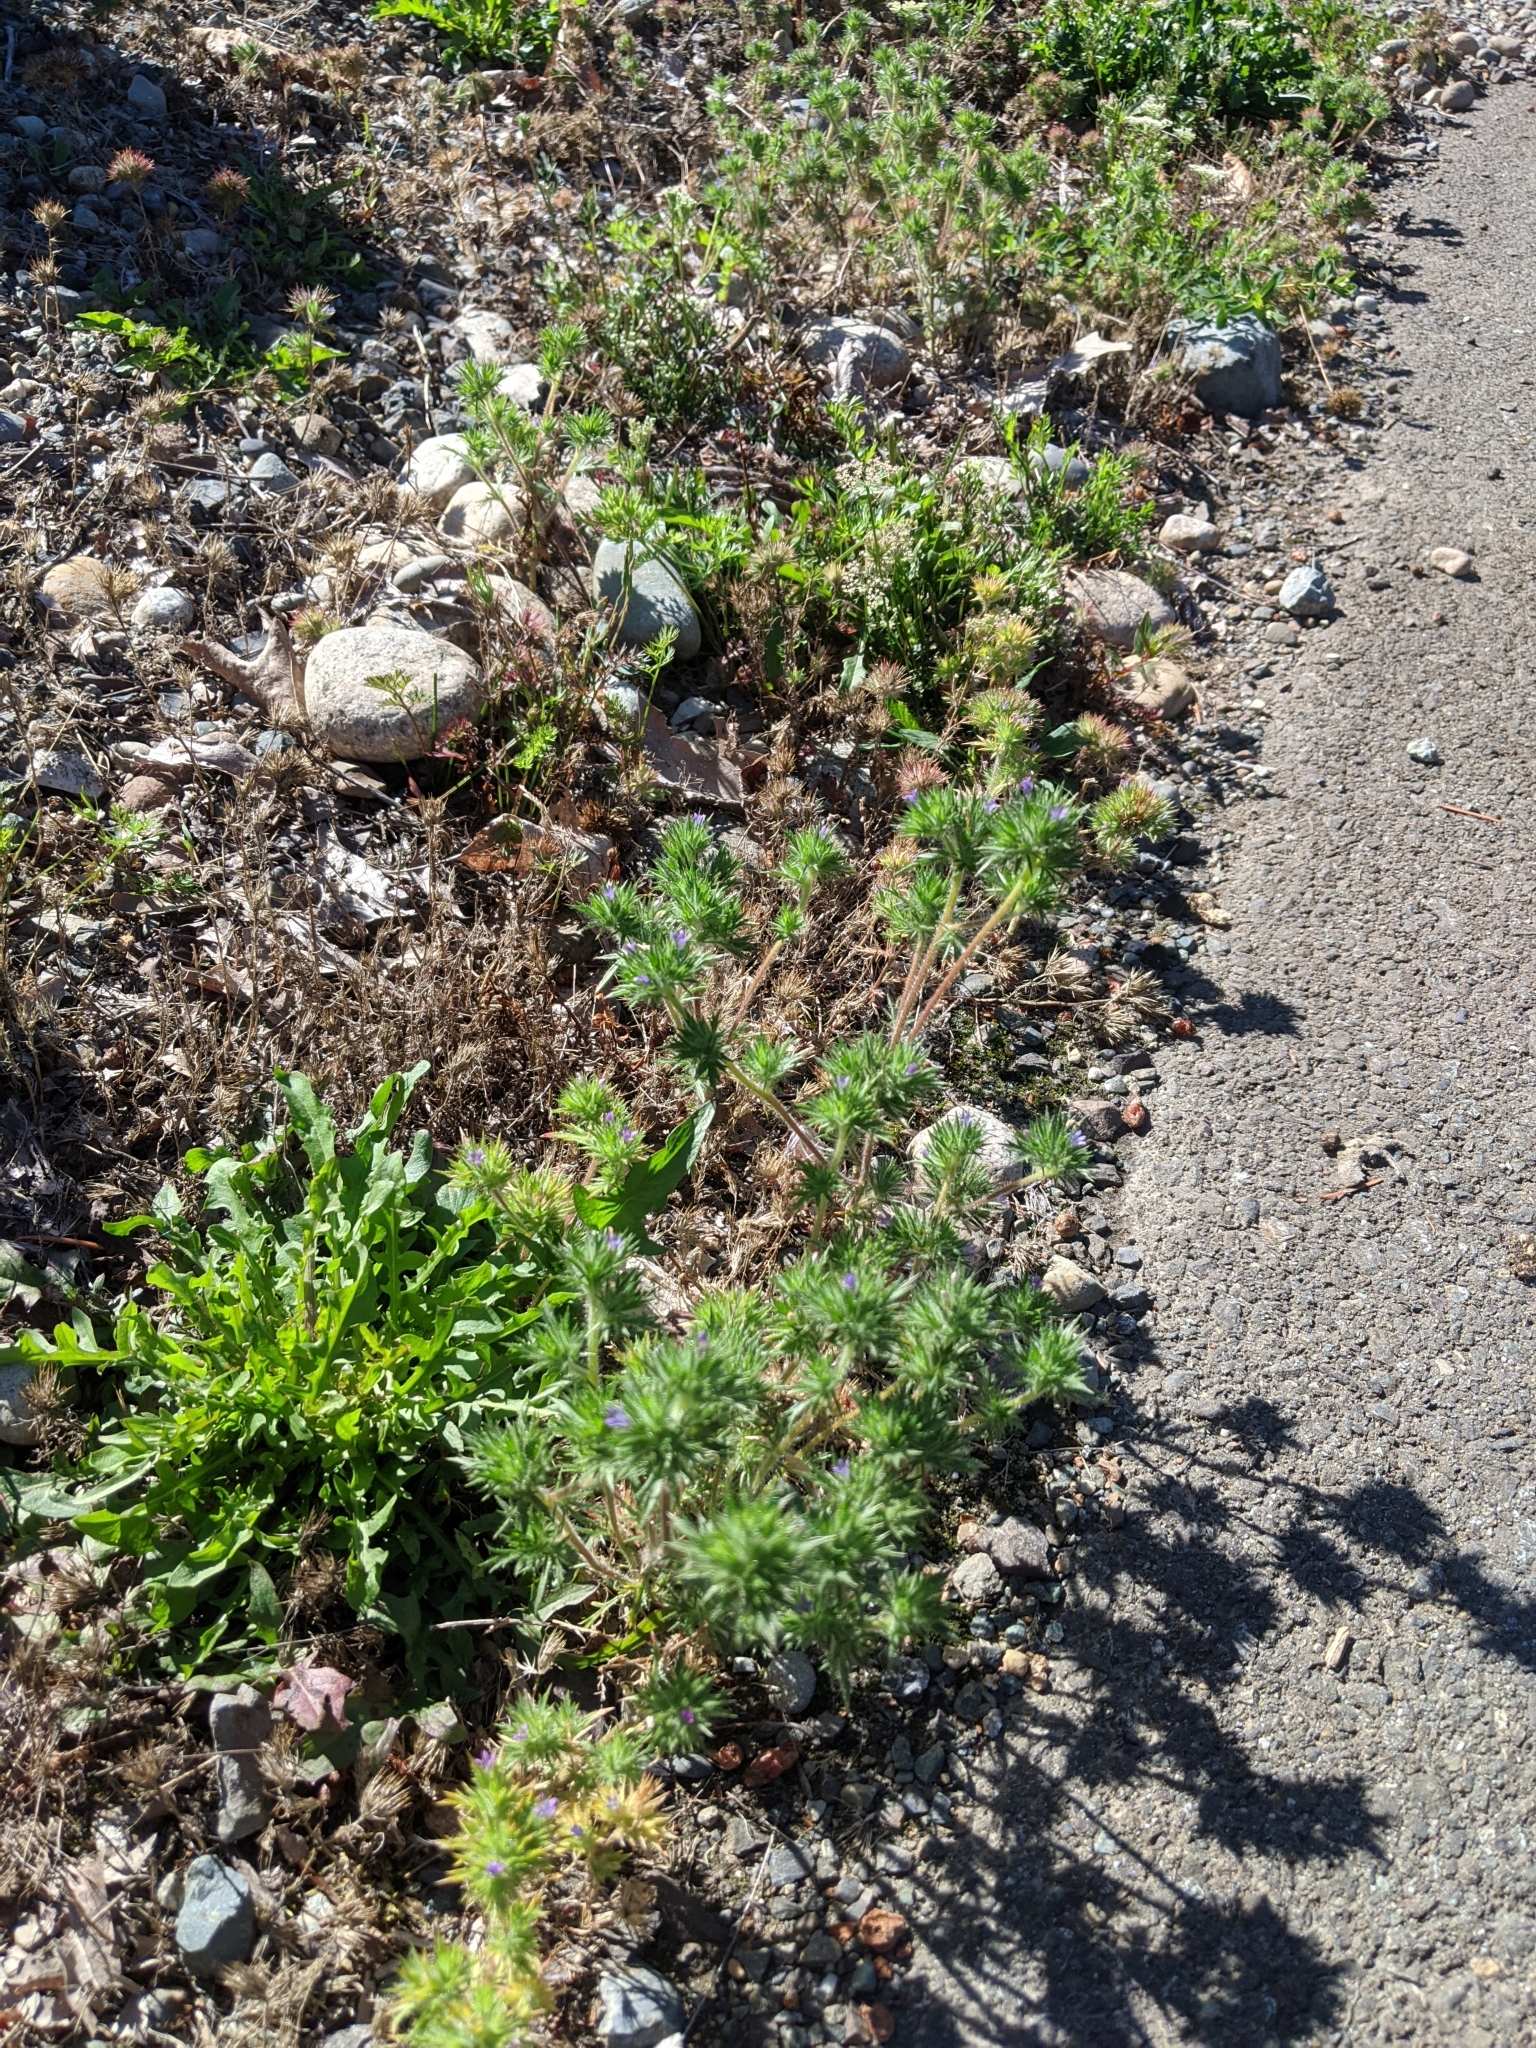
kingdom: Plantae
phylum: Tracheophyta
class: Magnoliopsida
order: Ericales
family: Polemoniaceae
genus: Navarretia
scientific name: Navarretia squarrosa
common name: Skunkweed
